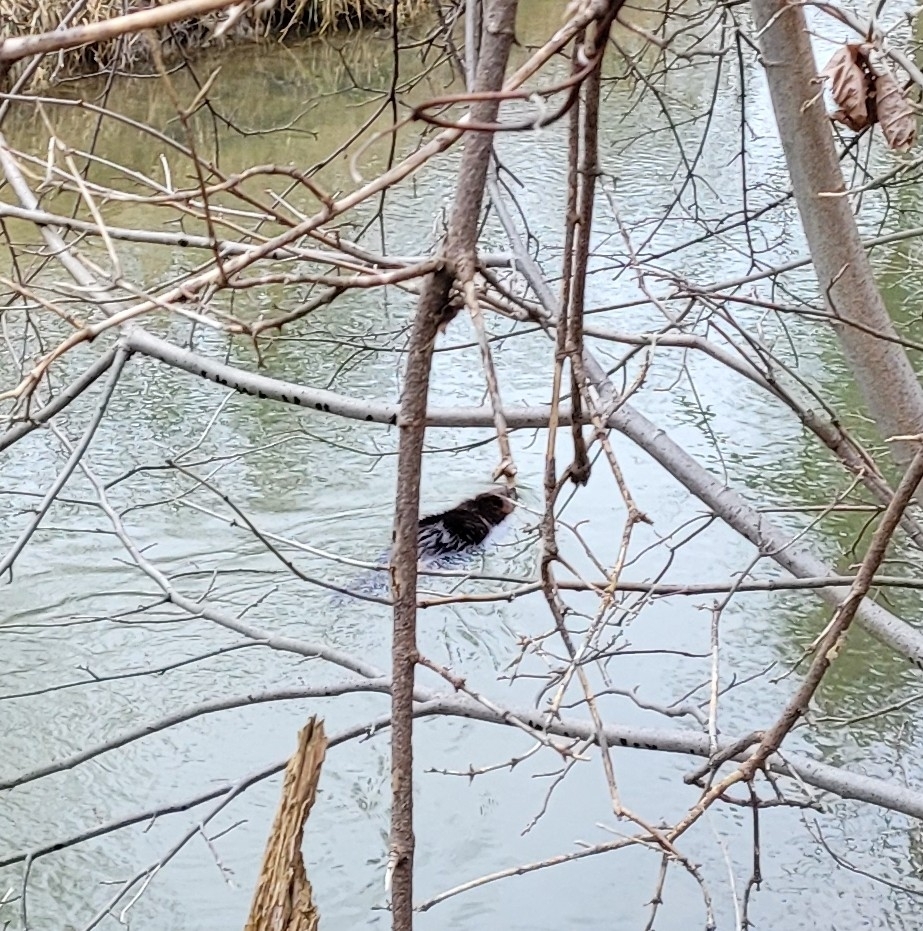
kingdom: Animalia
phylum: Chordata
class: Mammalia
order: Rodentia
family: Castoridae
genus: Castor
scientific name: Castor canadensis
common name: American beaver
